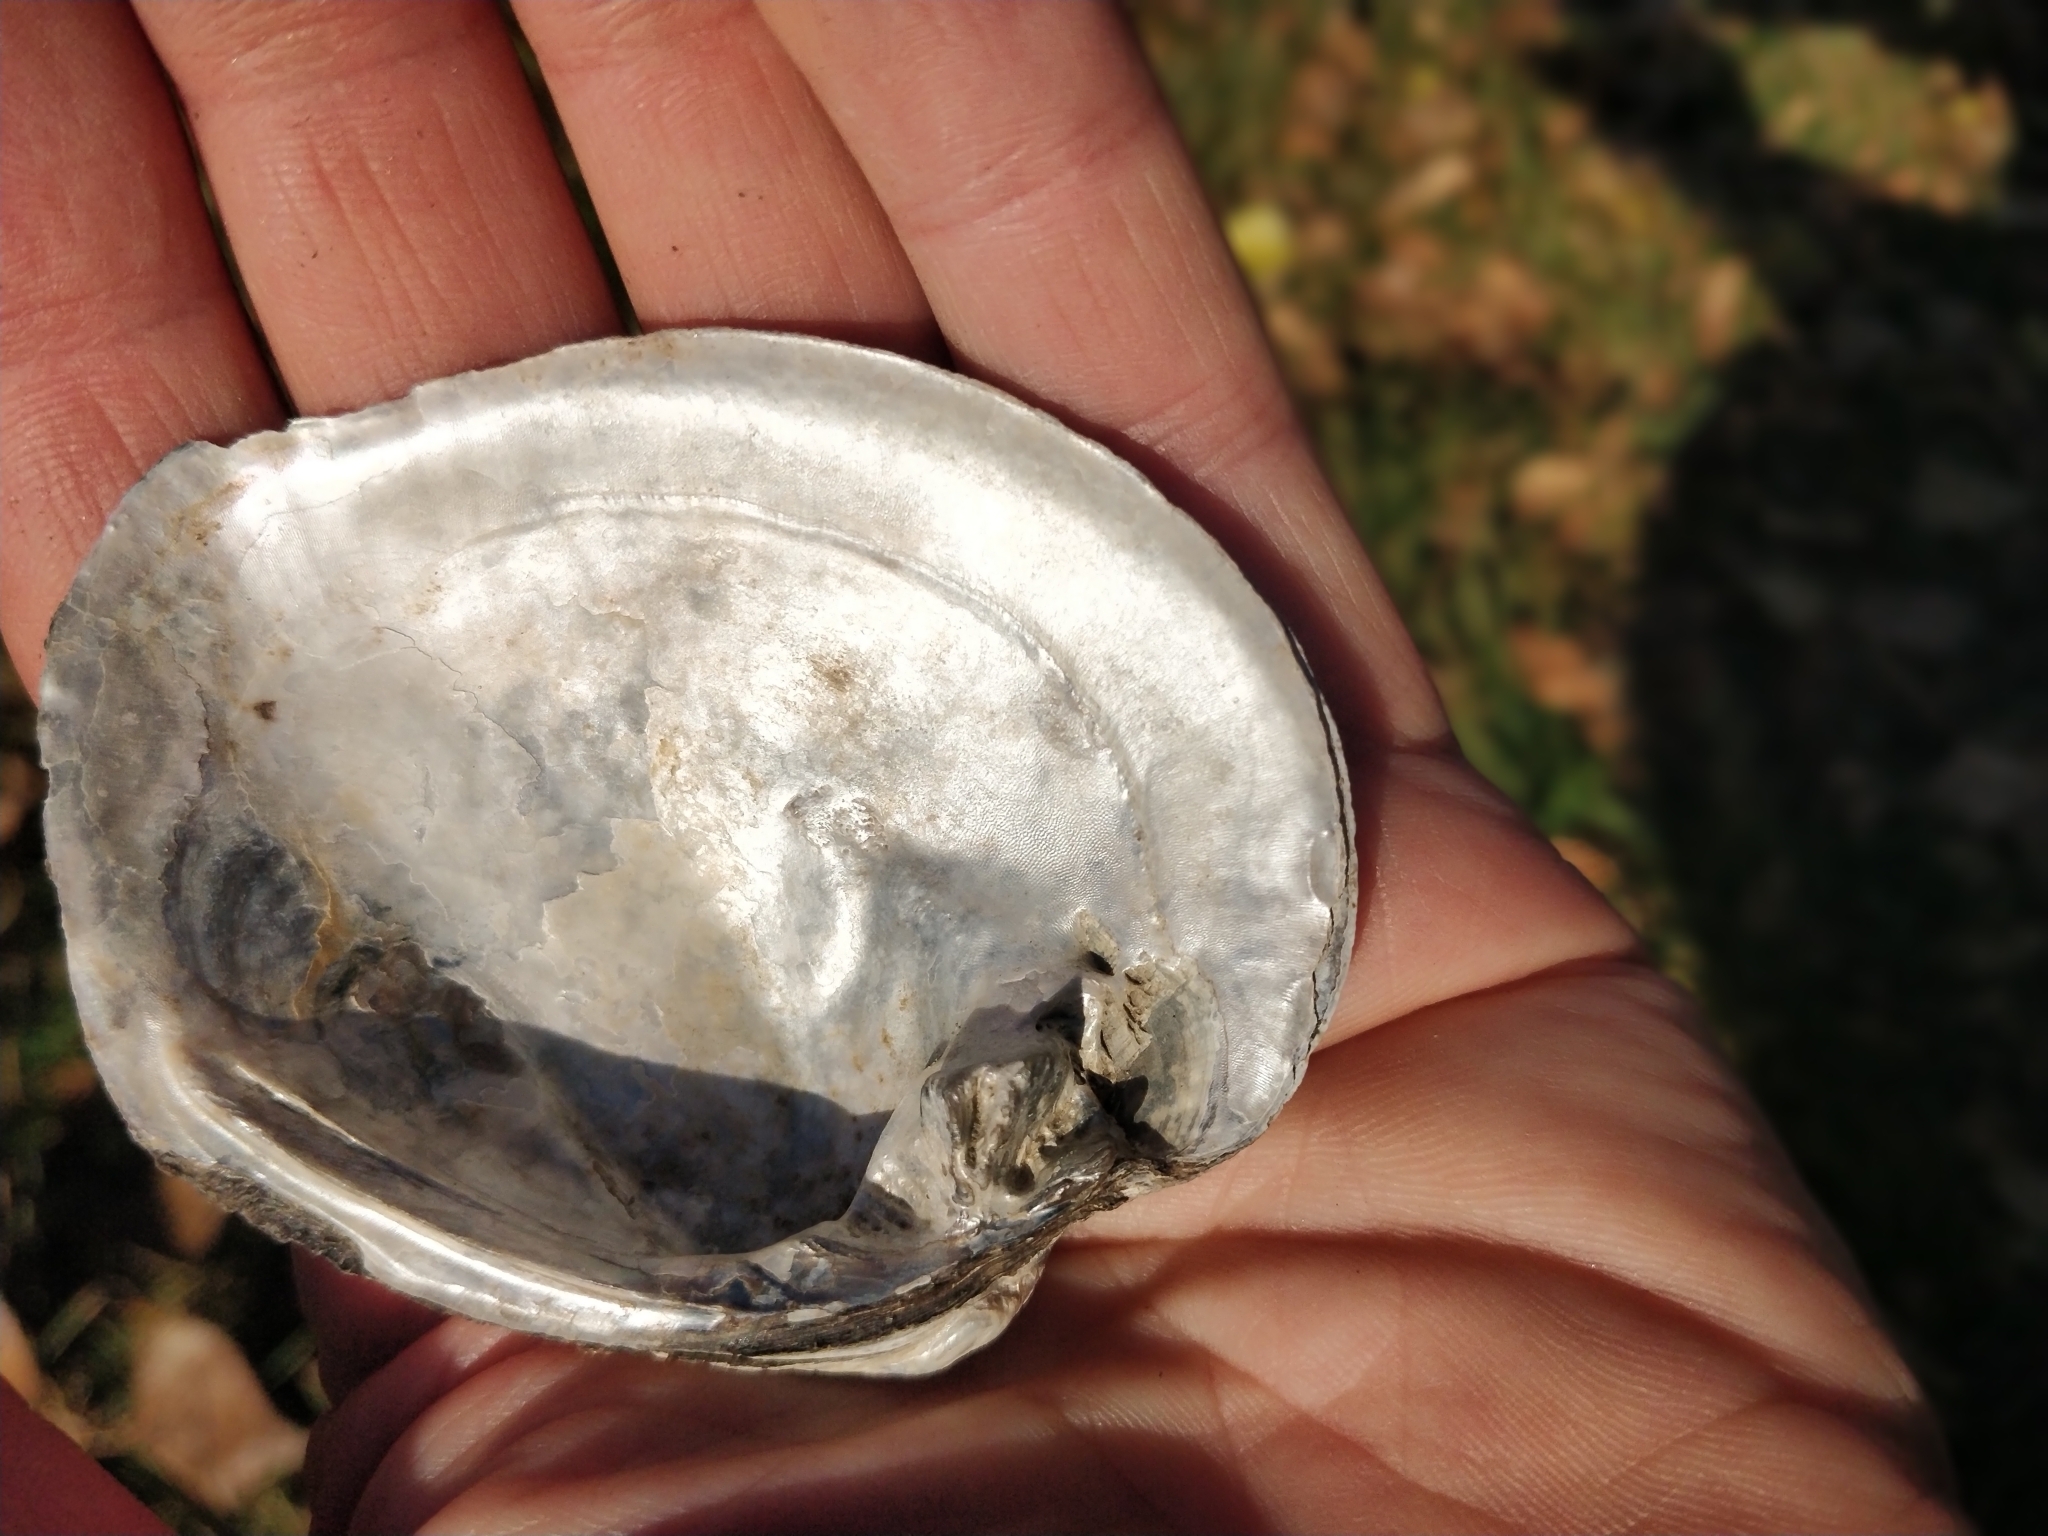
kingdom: Animalia
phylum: Mollusca
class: Bivalvia
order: Unionida
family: Unionidae
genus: Quadrula
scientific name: Quadrula quadrula
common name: Mapleleaf
